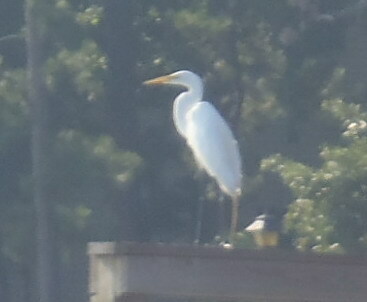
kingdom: Animalia
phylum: Chordata
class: Aves
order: Pelecaniformes
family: Ardeidae
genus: Ardea
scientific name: Ardea alba
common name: Great egret
